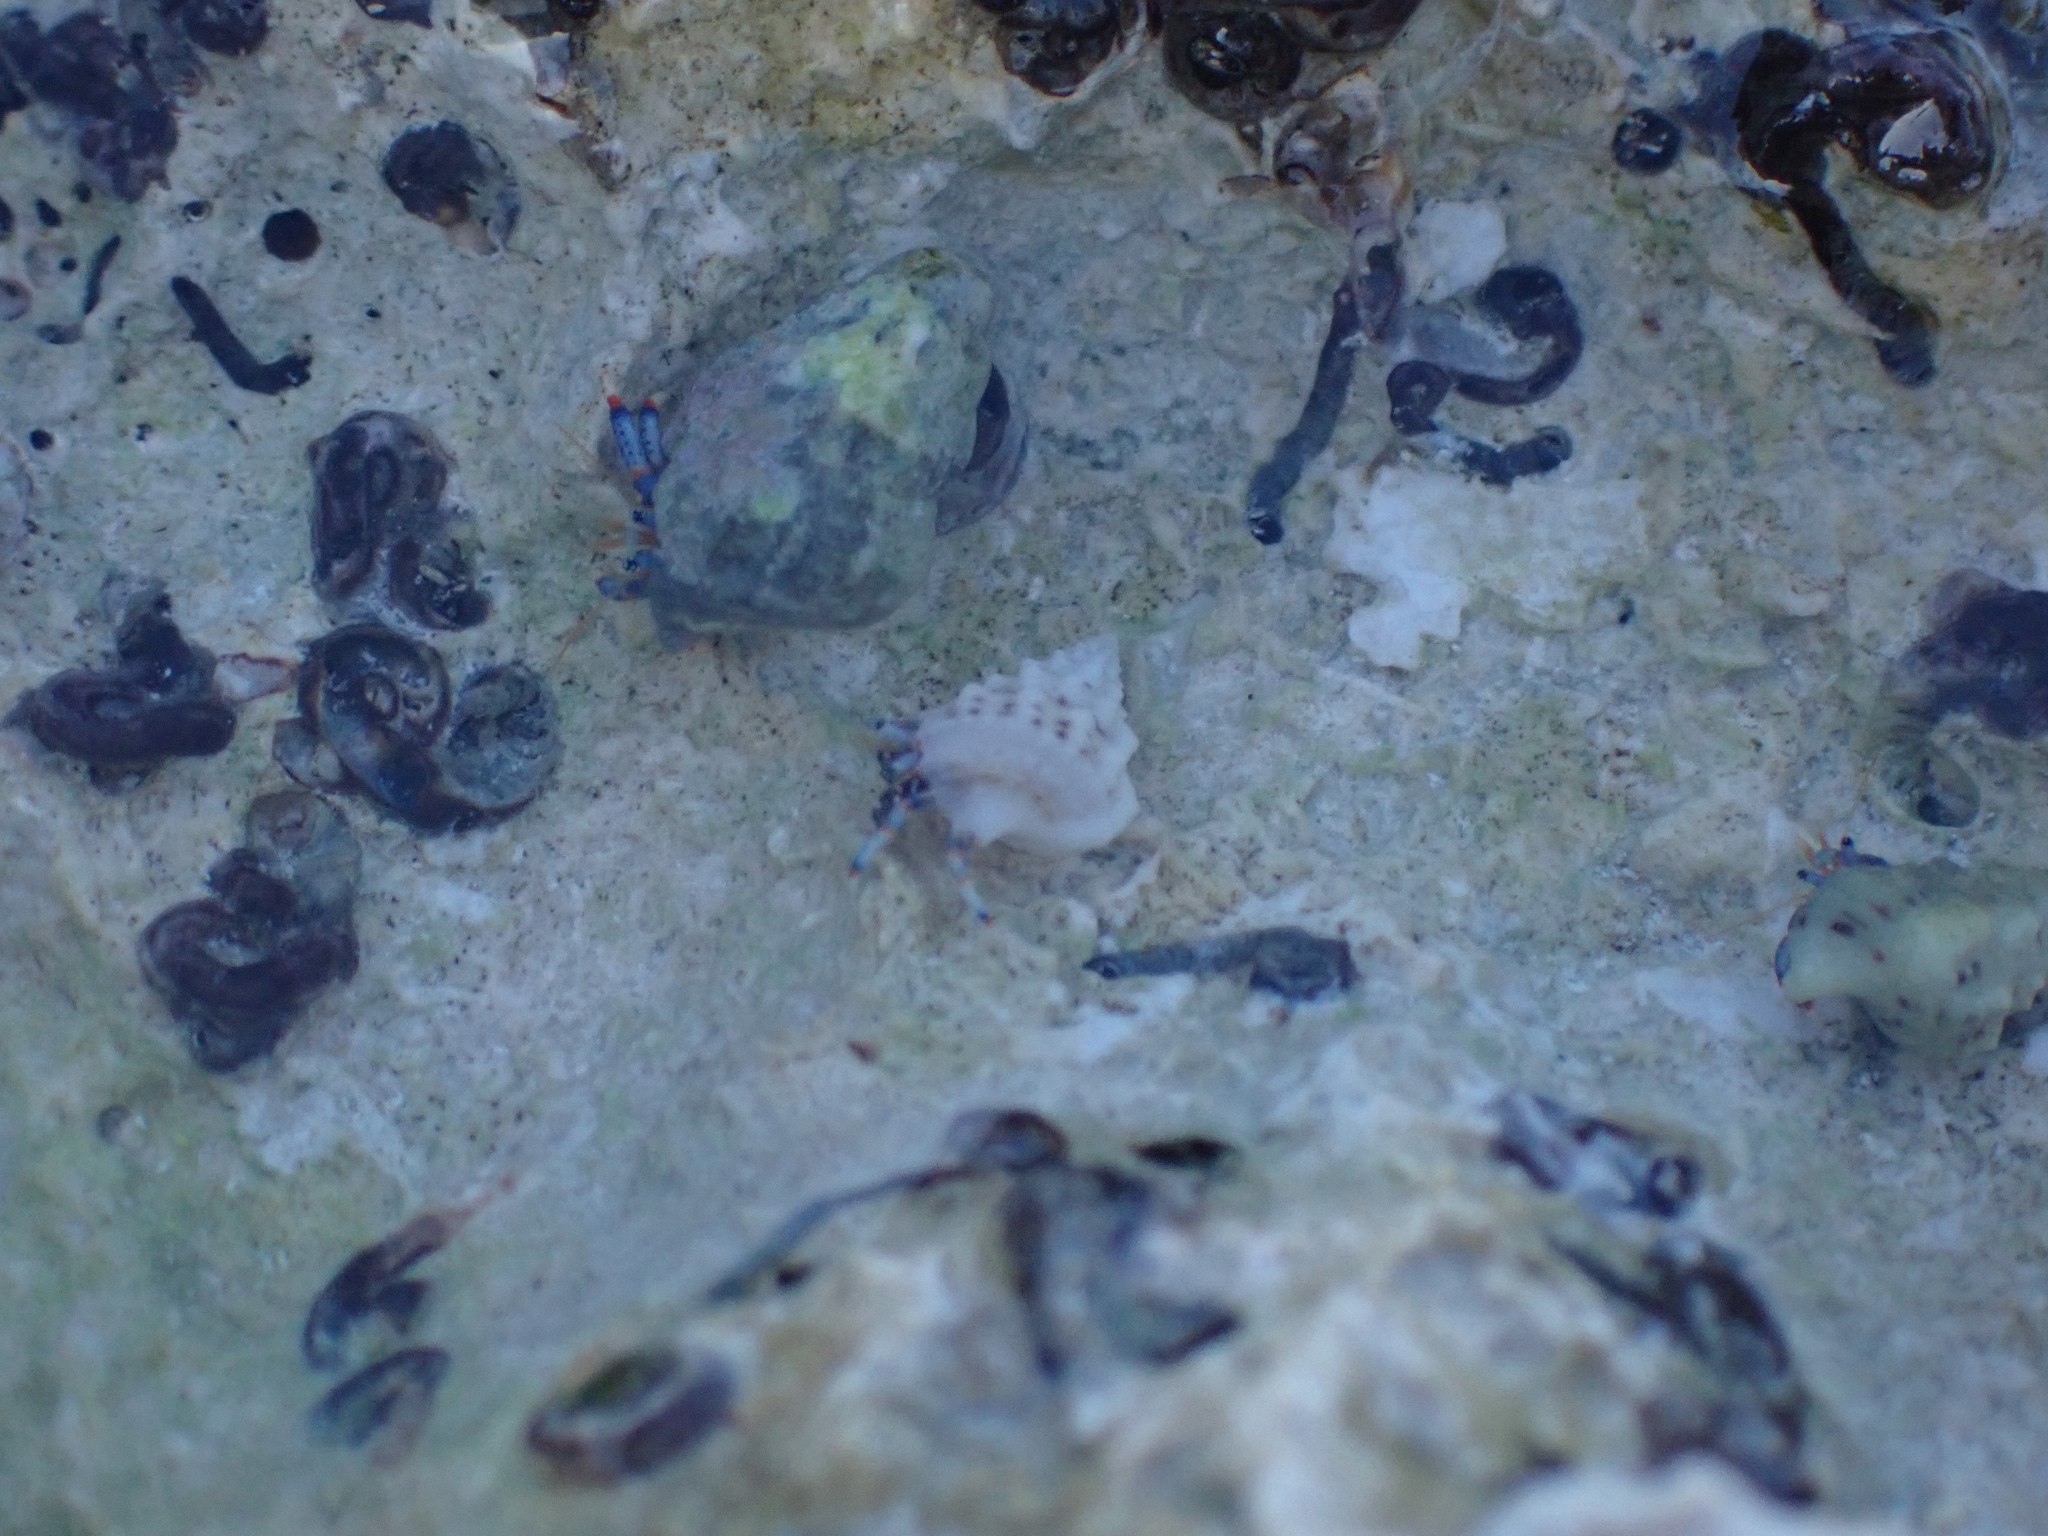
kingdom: Animalia
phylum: Arthropoda
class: Malacostraca
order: Decapoda
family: Diogenidae
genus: Clibanarius
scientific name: Clibanarius tricolor
